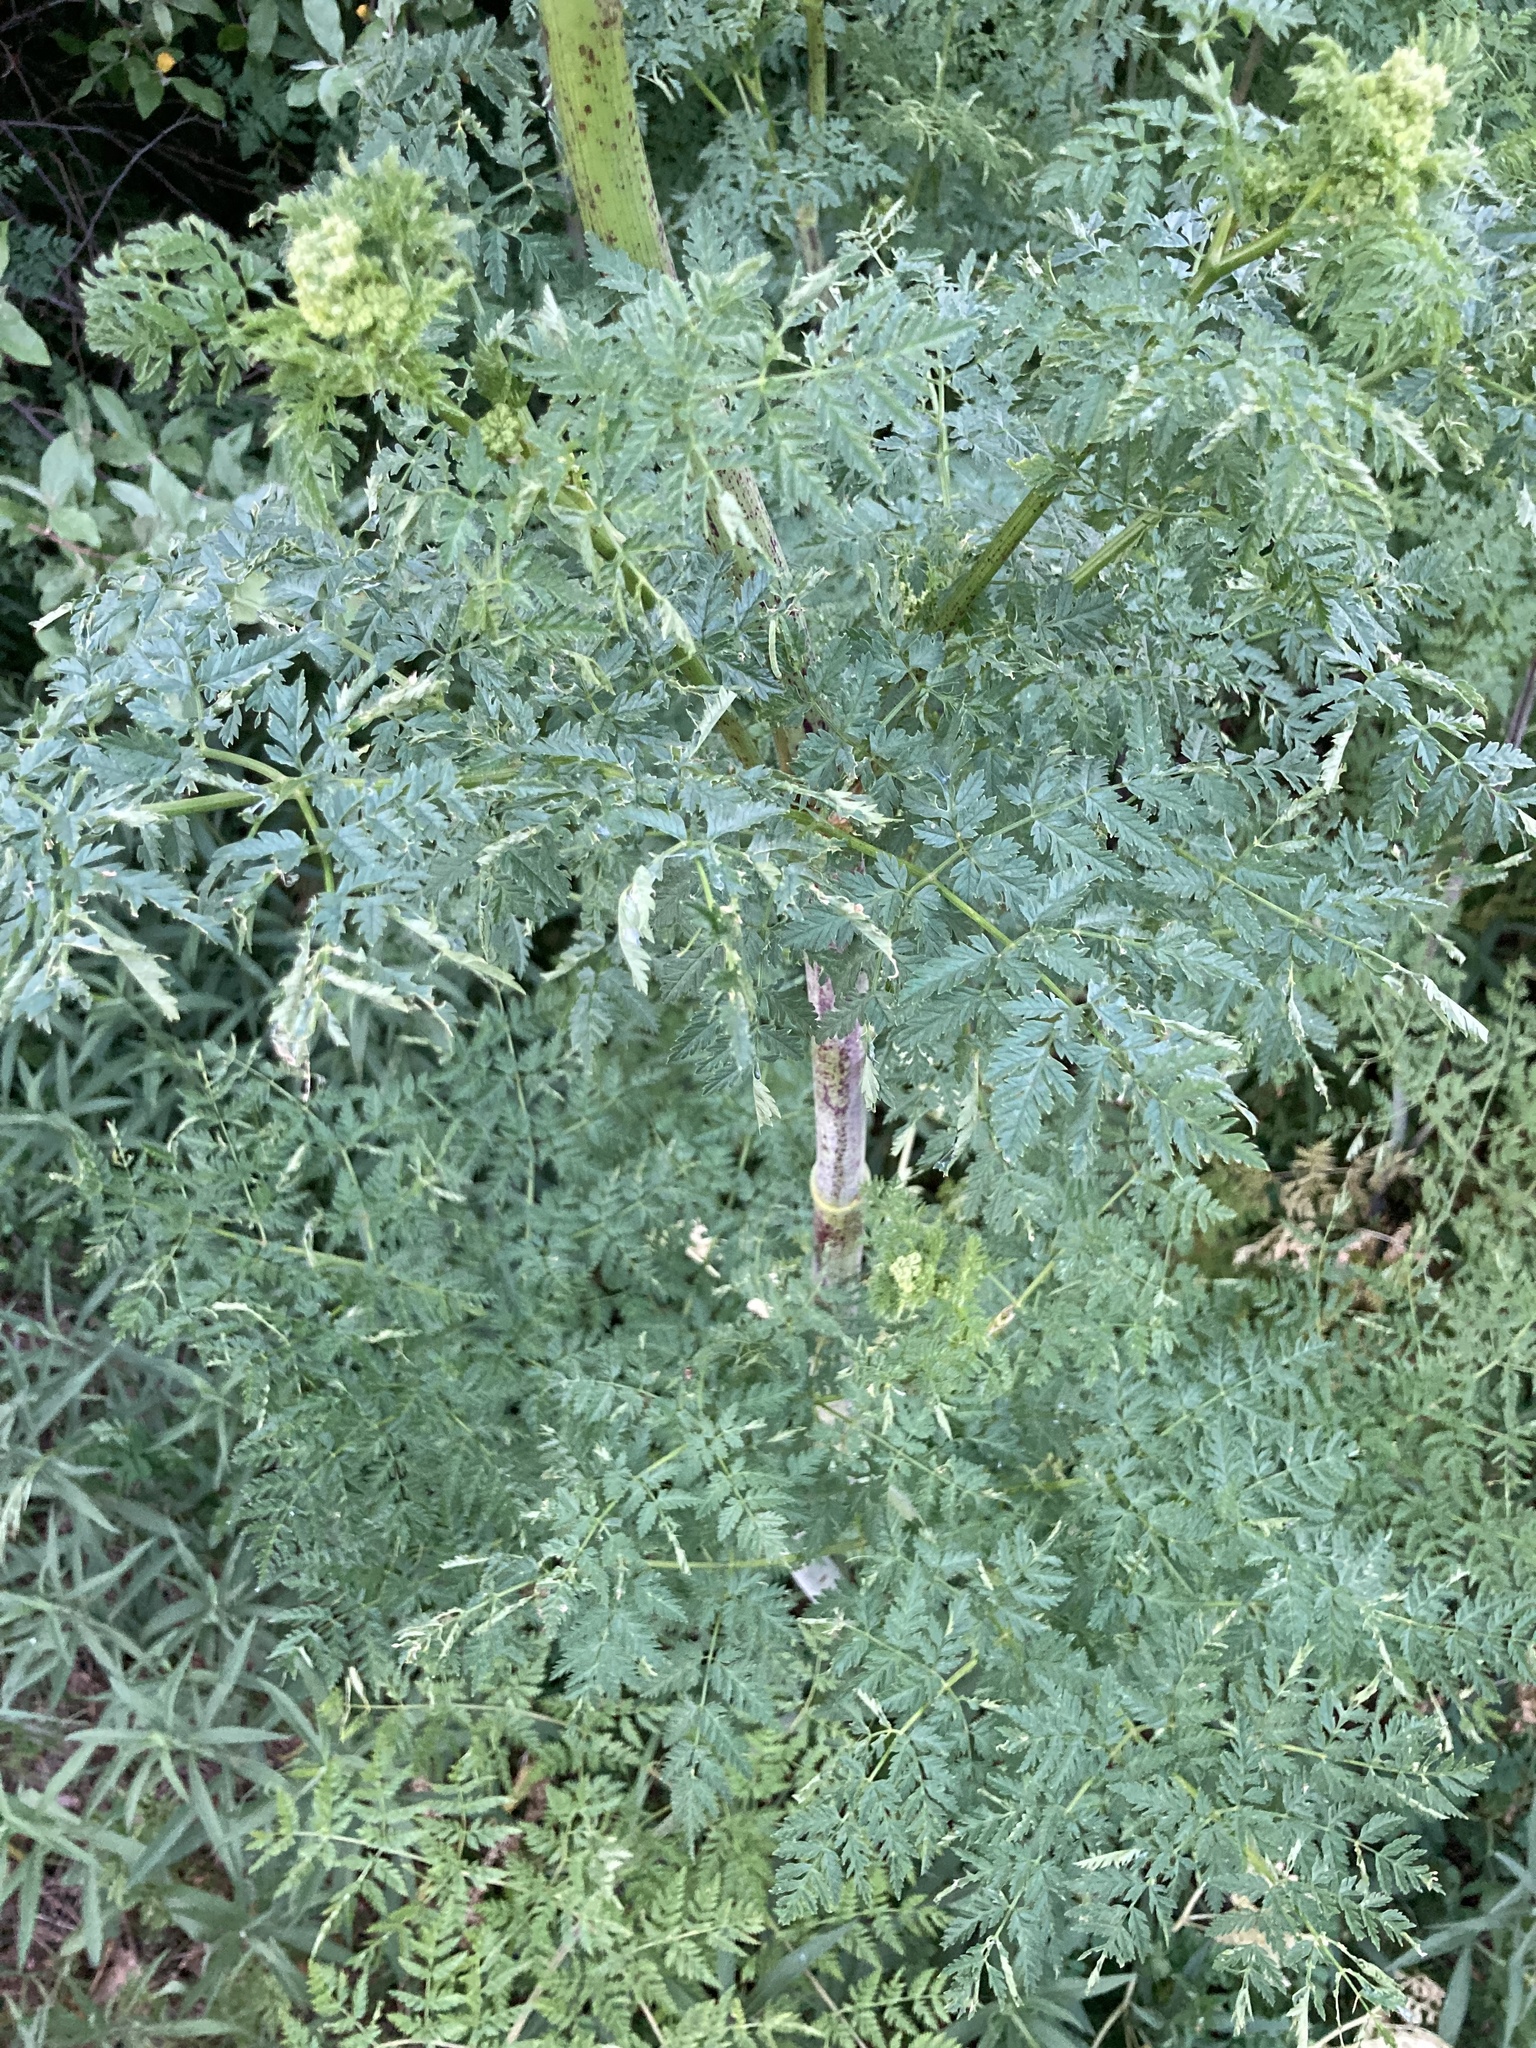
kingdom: Plantae
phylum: Tracheophyta
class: Magnoliopsida
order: Apiales
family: Apiaceae
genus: Conium
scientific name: Conium maculatum
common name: Hemlock
